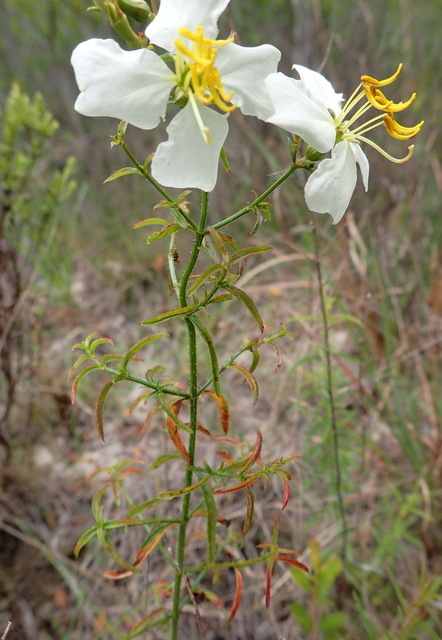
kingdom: Plantae
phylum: Tracheophyta
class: Magnoliopsida
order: Myrtales
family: Melastomataceae
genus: Rhexia
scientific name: Rhexia mariana
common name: Dull meadow-pitcher
